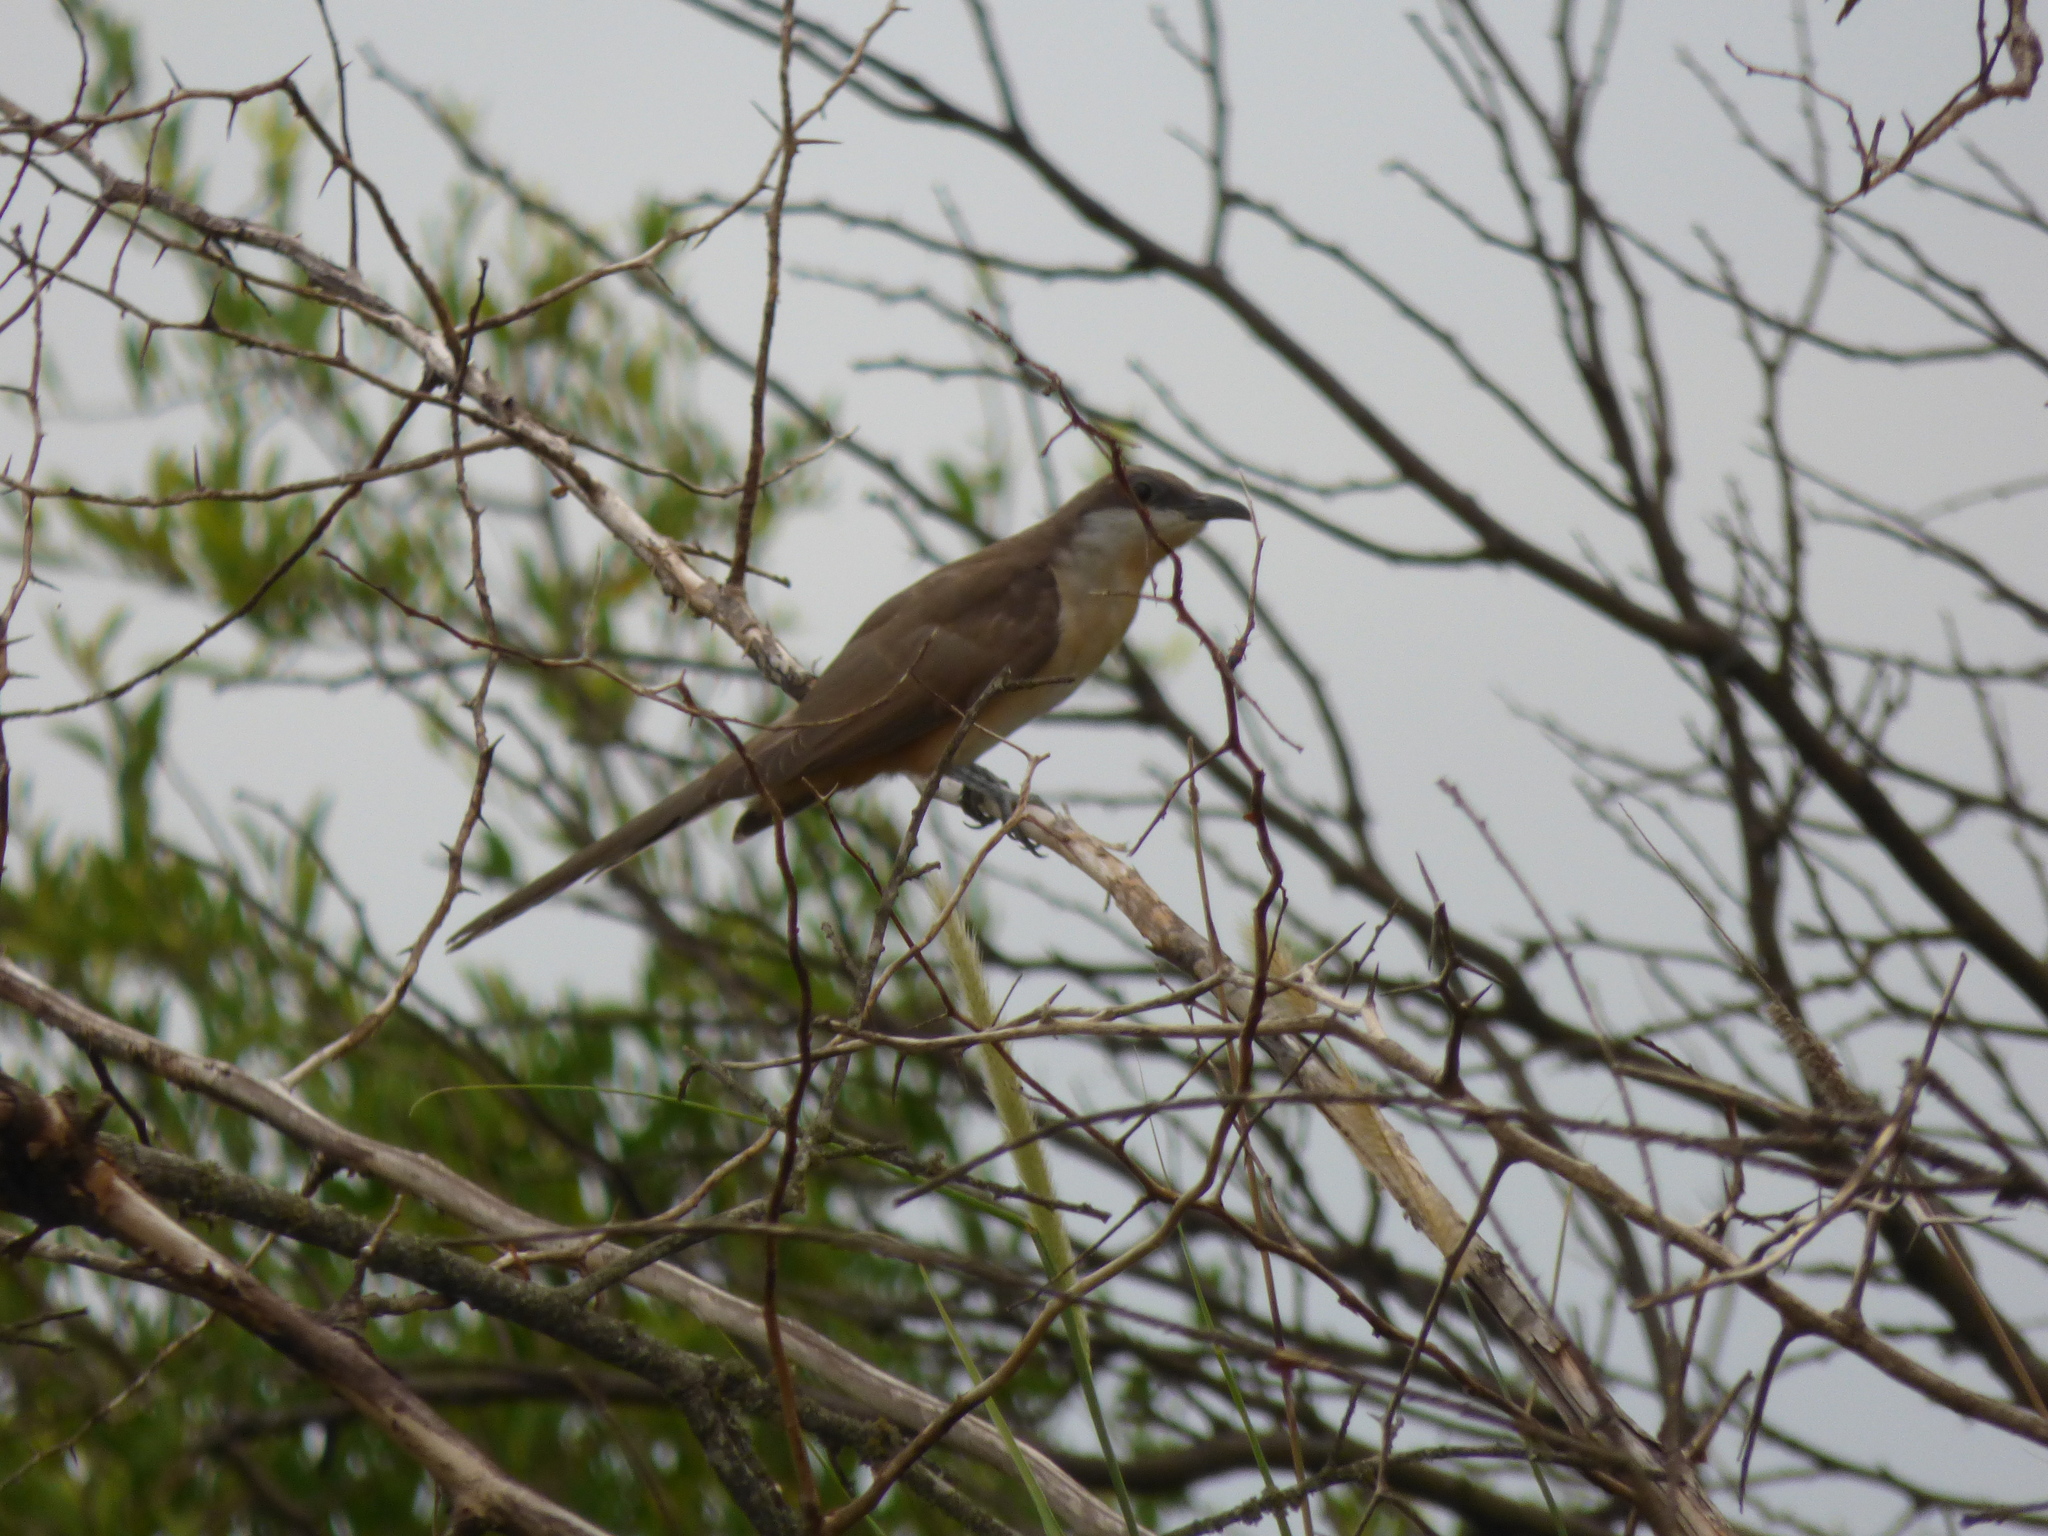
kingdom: Animalia
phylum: Chordata
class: Aves
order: Cuculiformes
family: Cuculidae
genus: Coccyzus
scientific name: Coccyzus melacoryphus
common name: Dark-billed cuckoo
